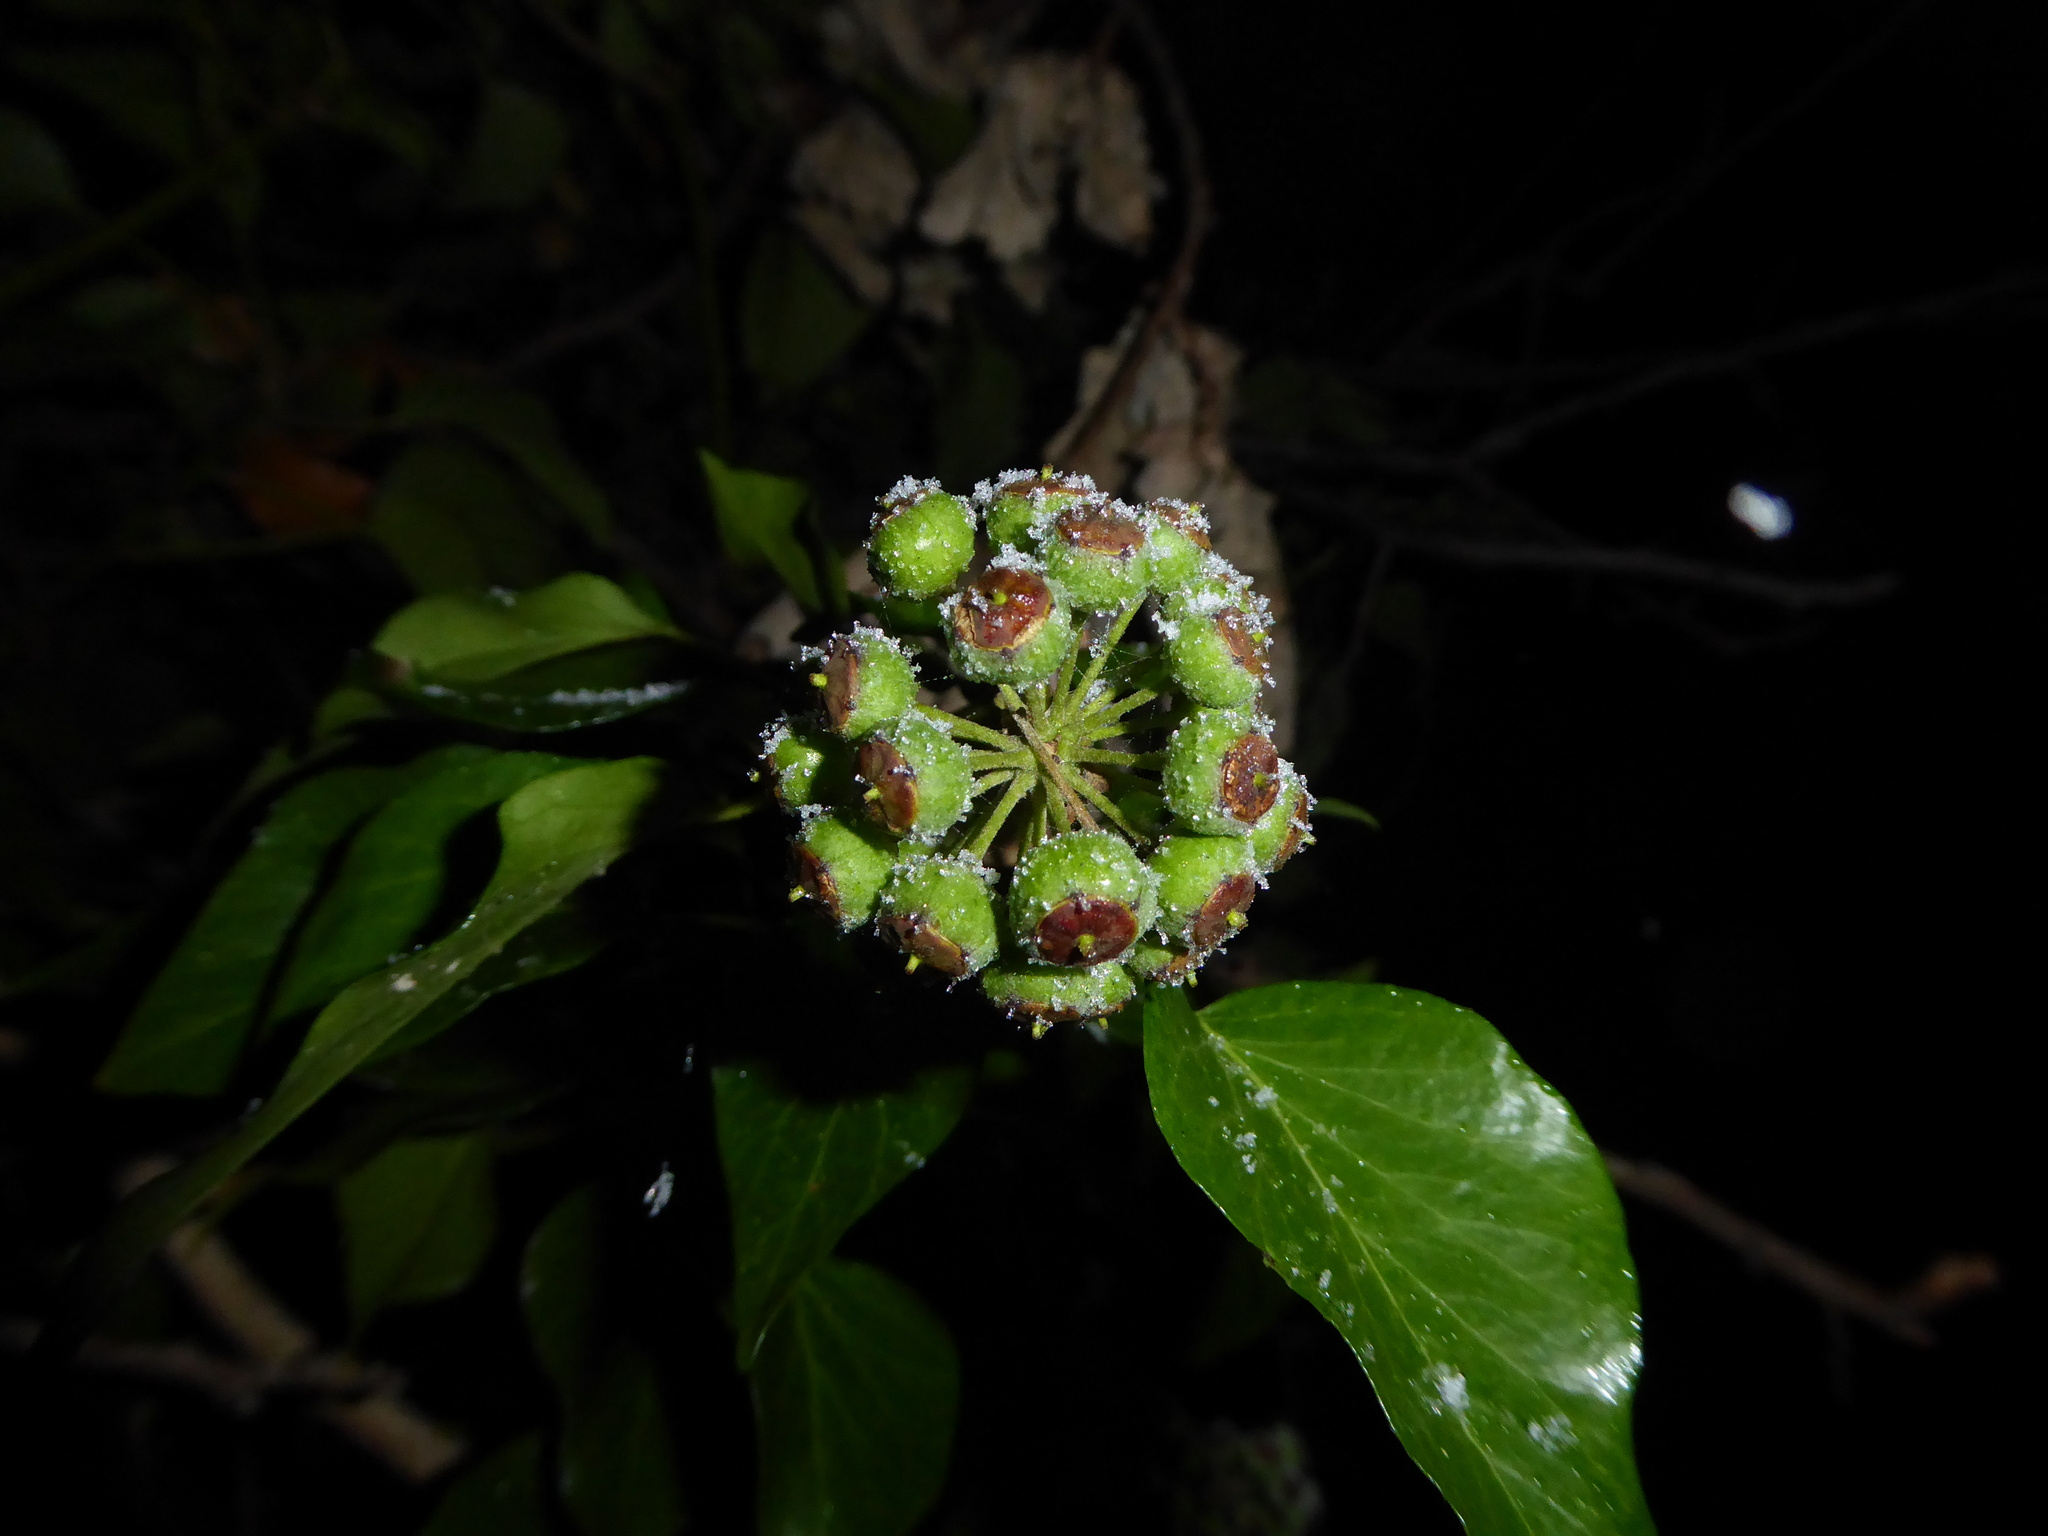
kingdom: Plantae
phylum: Tracheophyta
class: Magnoliopsida
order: Apiales
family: Araliaceae
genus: Hedera
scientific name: Hedera helix
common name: Ivy
